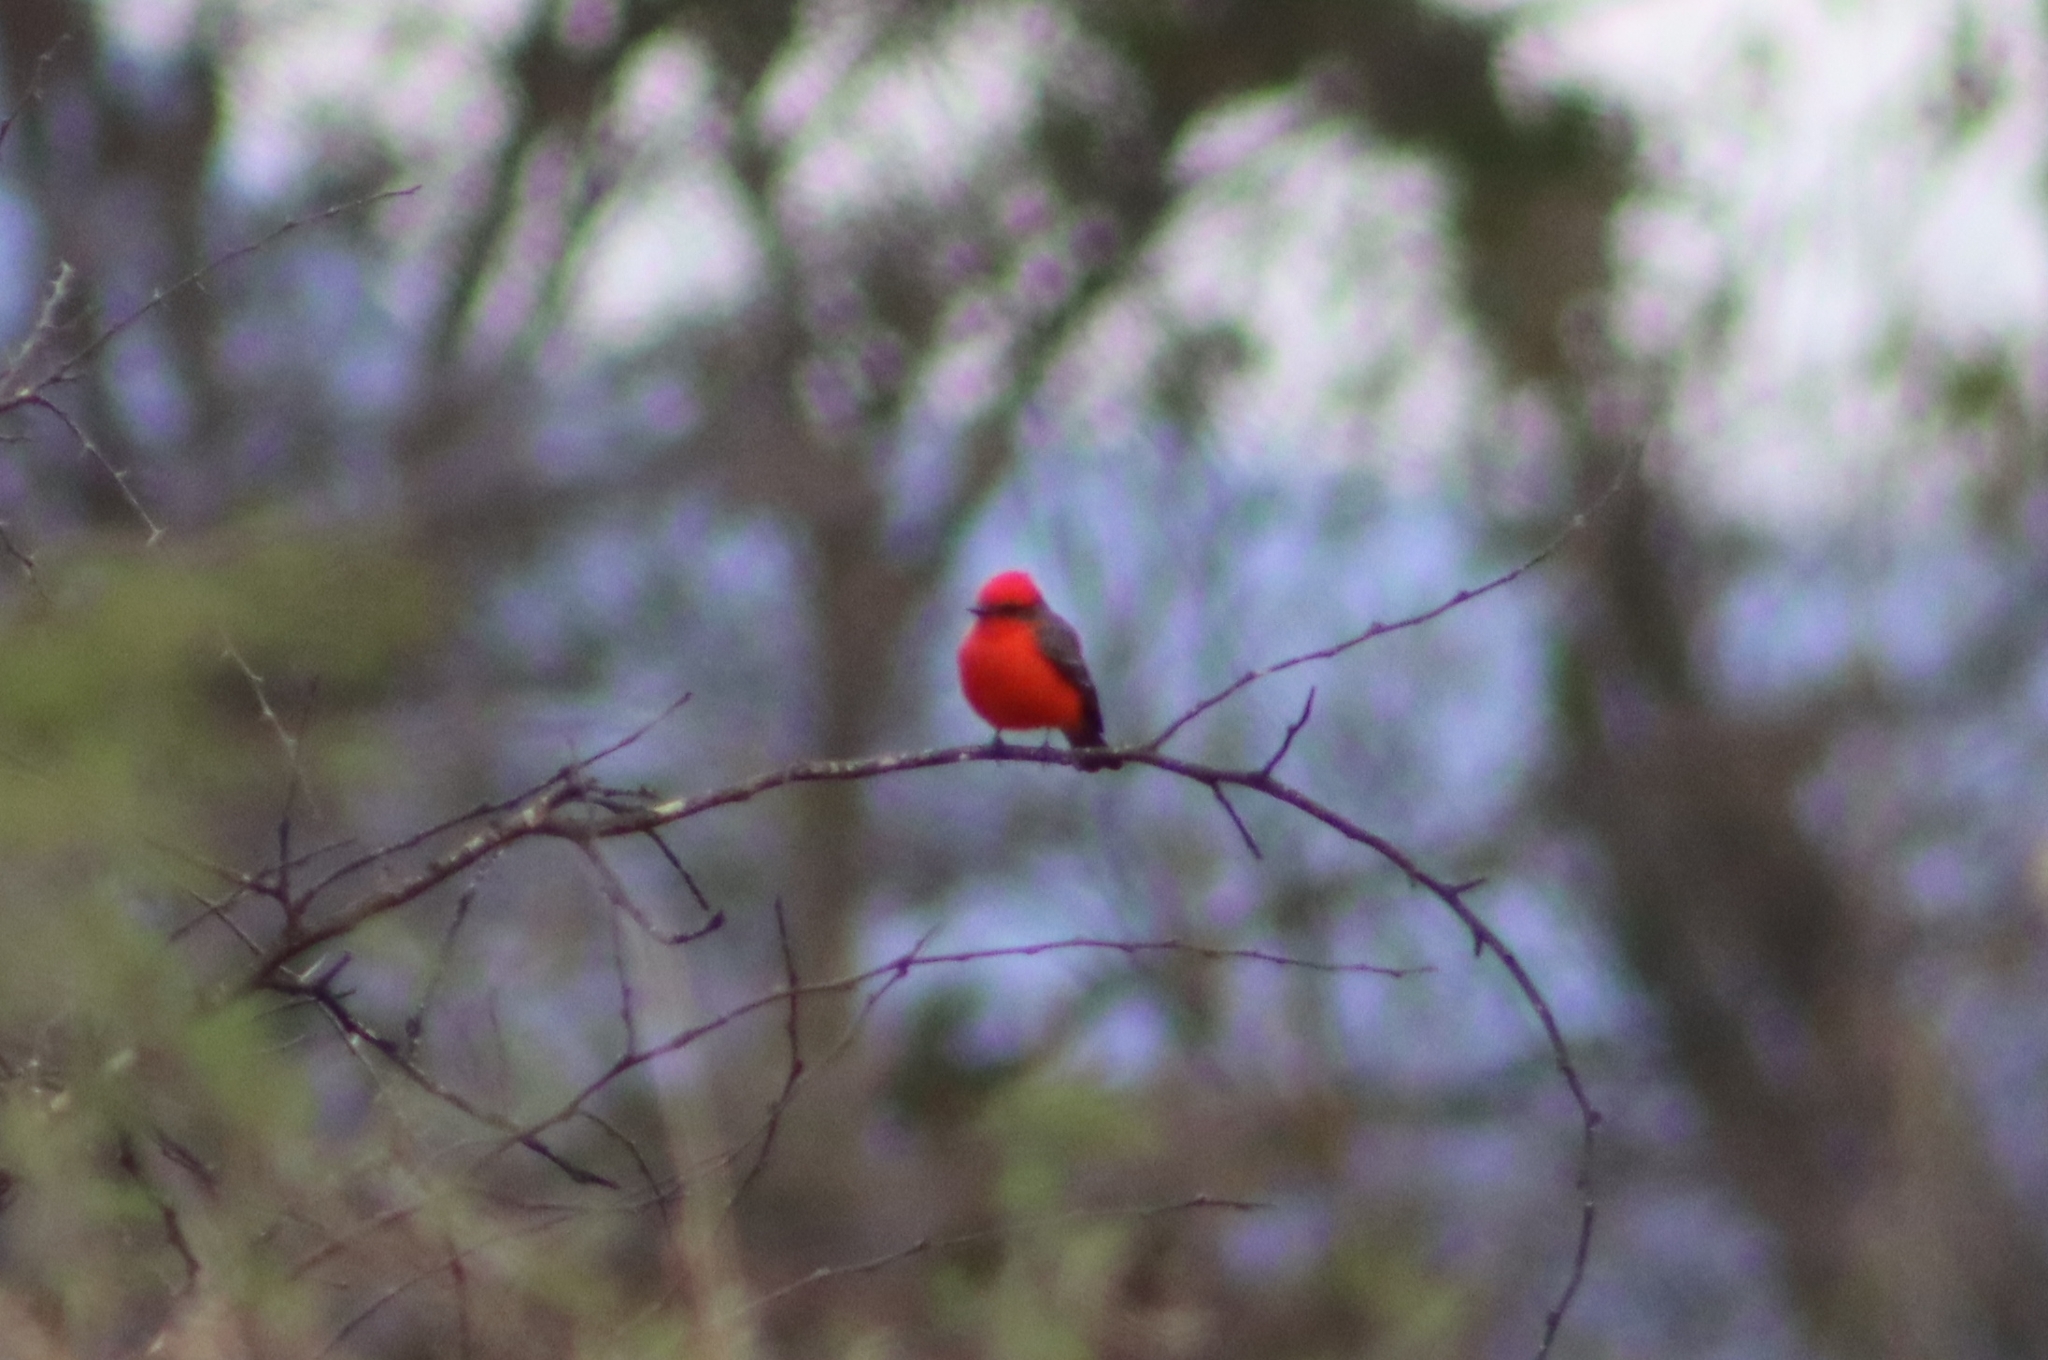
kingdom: Animalia
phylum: Chordata
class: Aves
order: Passeriformes
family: Tyrannidae
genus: Pyrocephalus
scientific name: Pyrocephalus rubinus
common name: Vermilion flycatcher
